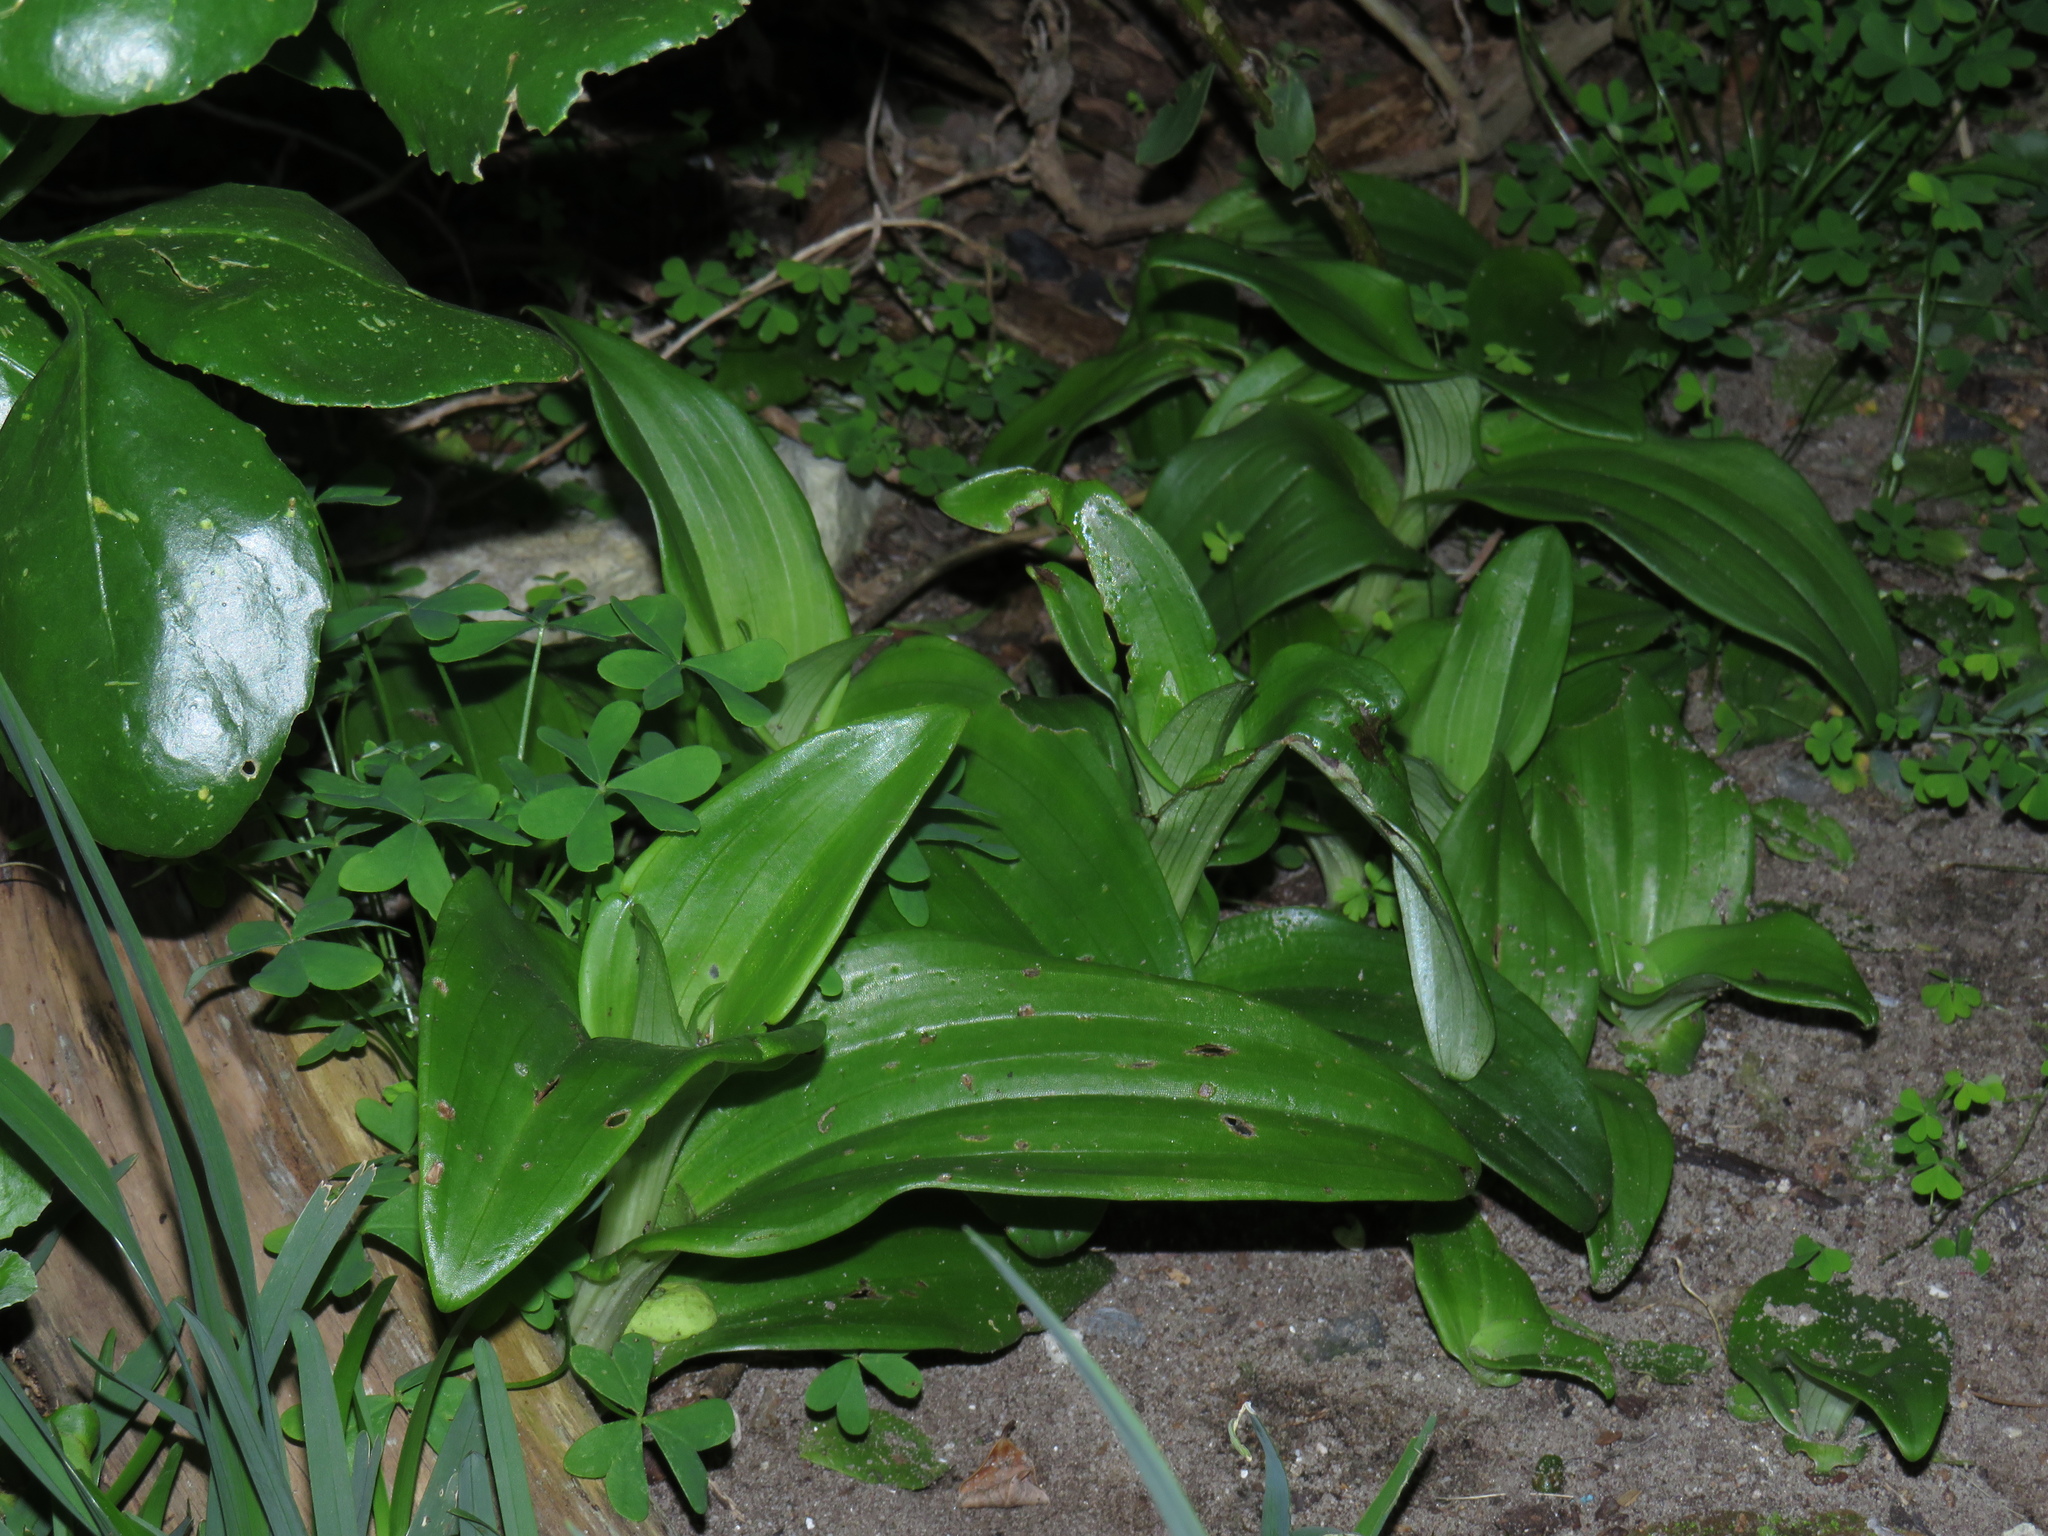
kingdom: Plantae
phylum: Tracheophyta
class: Liliopsida
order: Asparagales
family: Orchidaceae
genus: Satyrium
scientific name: Satyrium odorum
